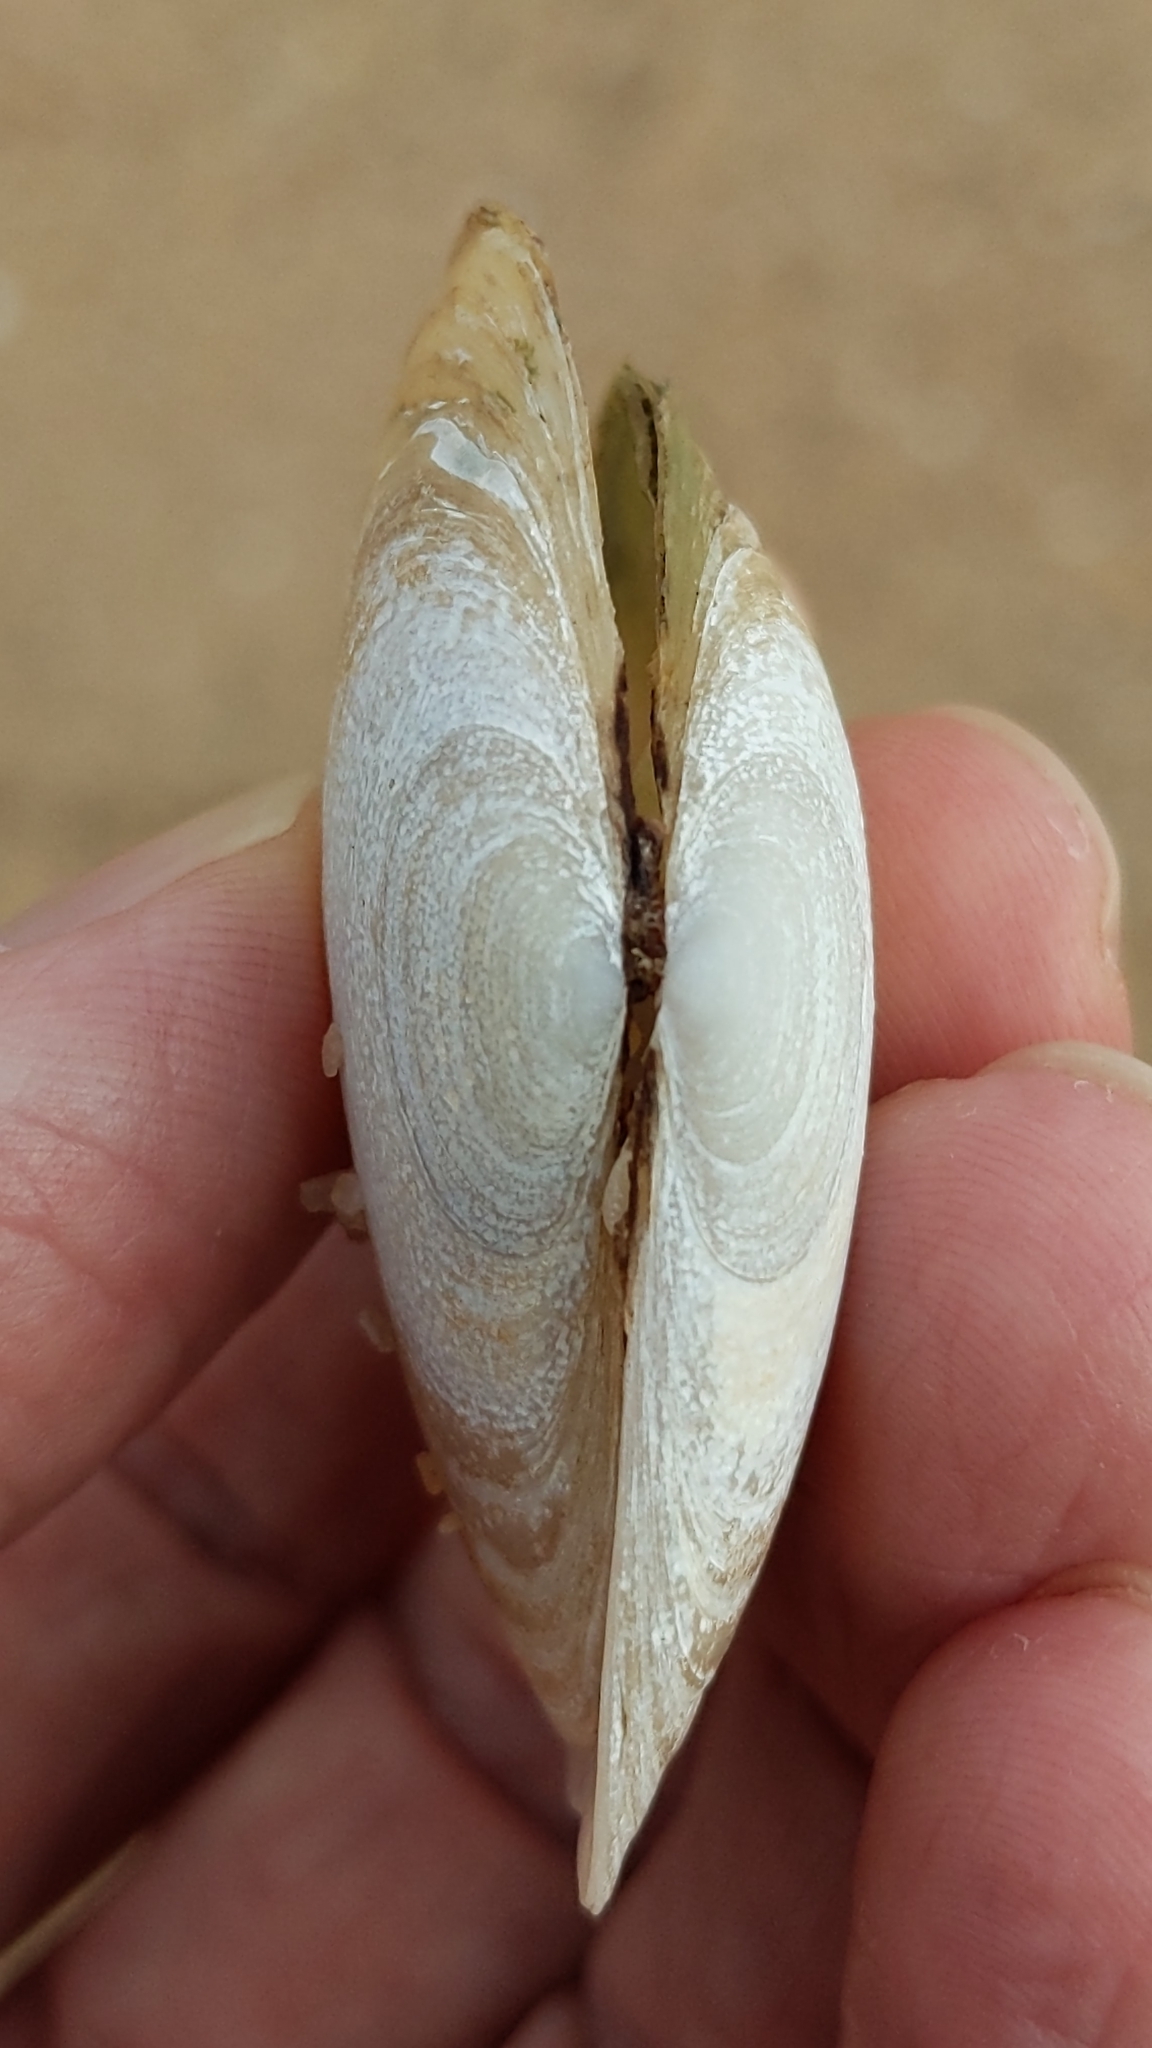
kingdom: Animalia
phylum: Mollusca
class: Bivalvia
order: Venerida
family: Mesodesmatidae
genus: Paphies
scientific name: Paphies australis
